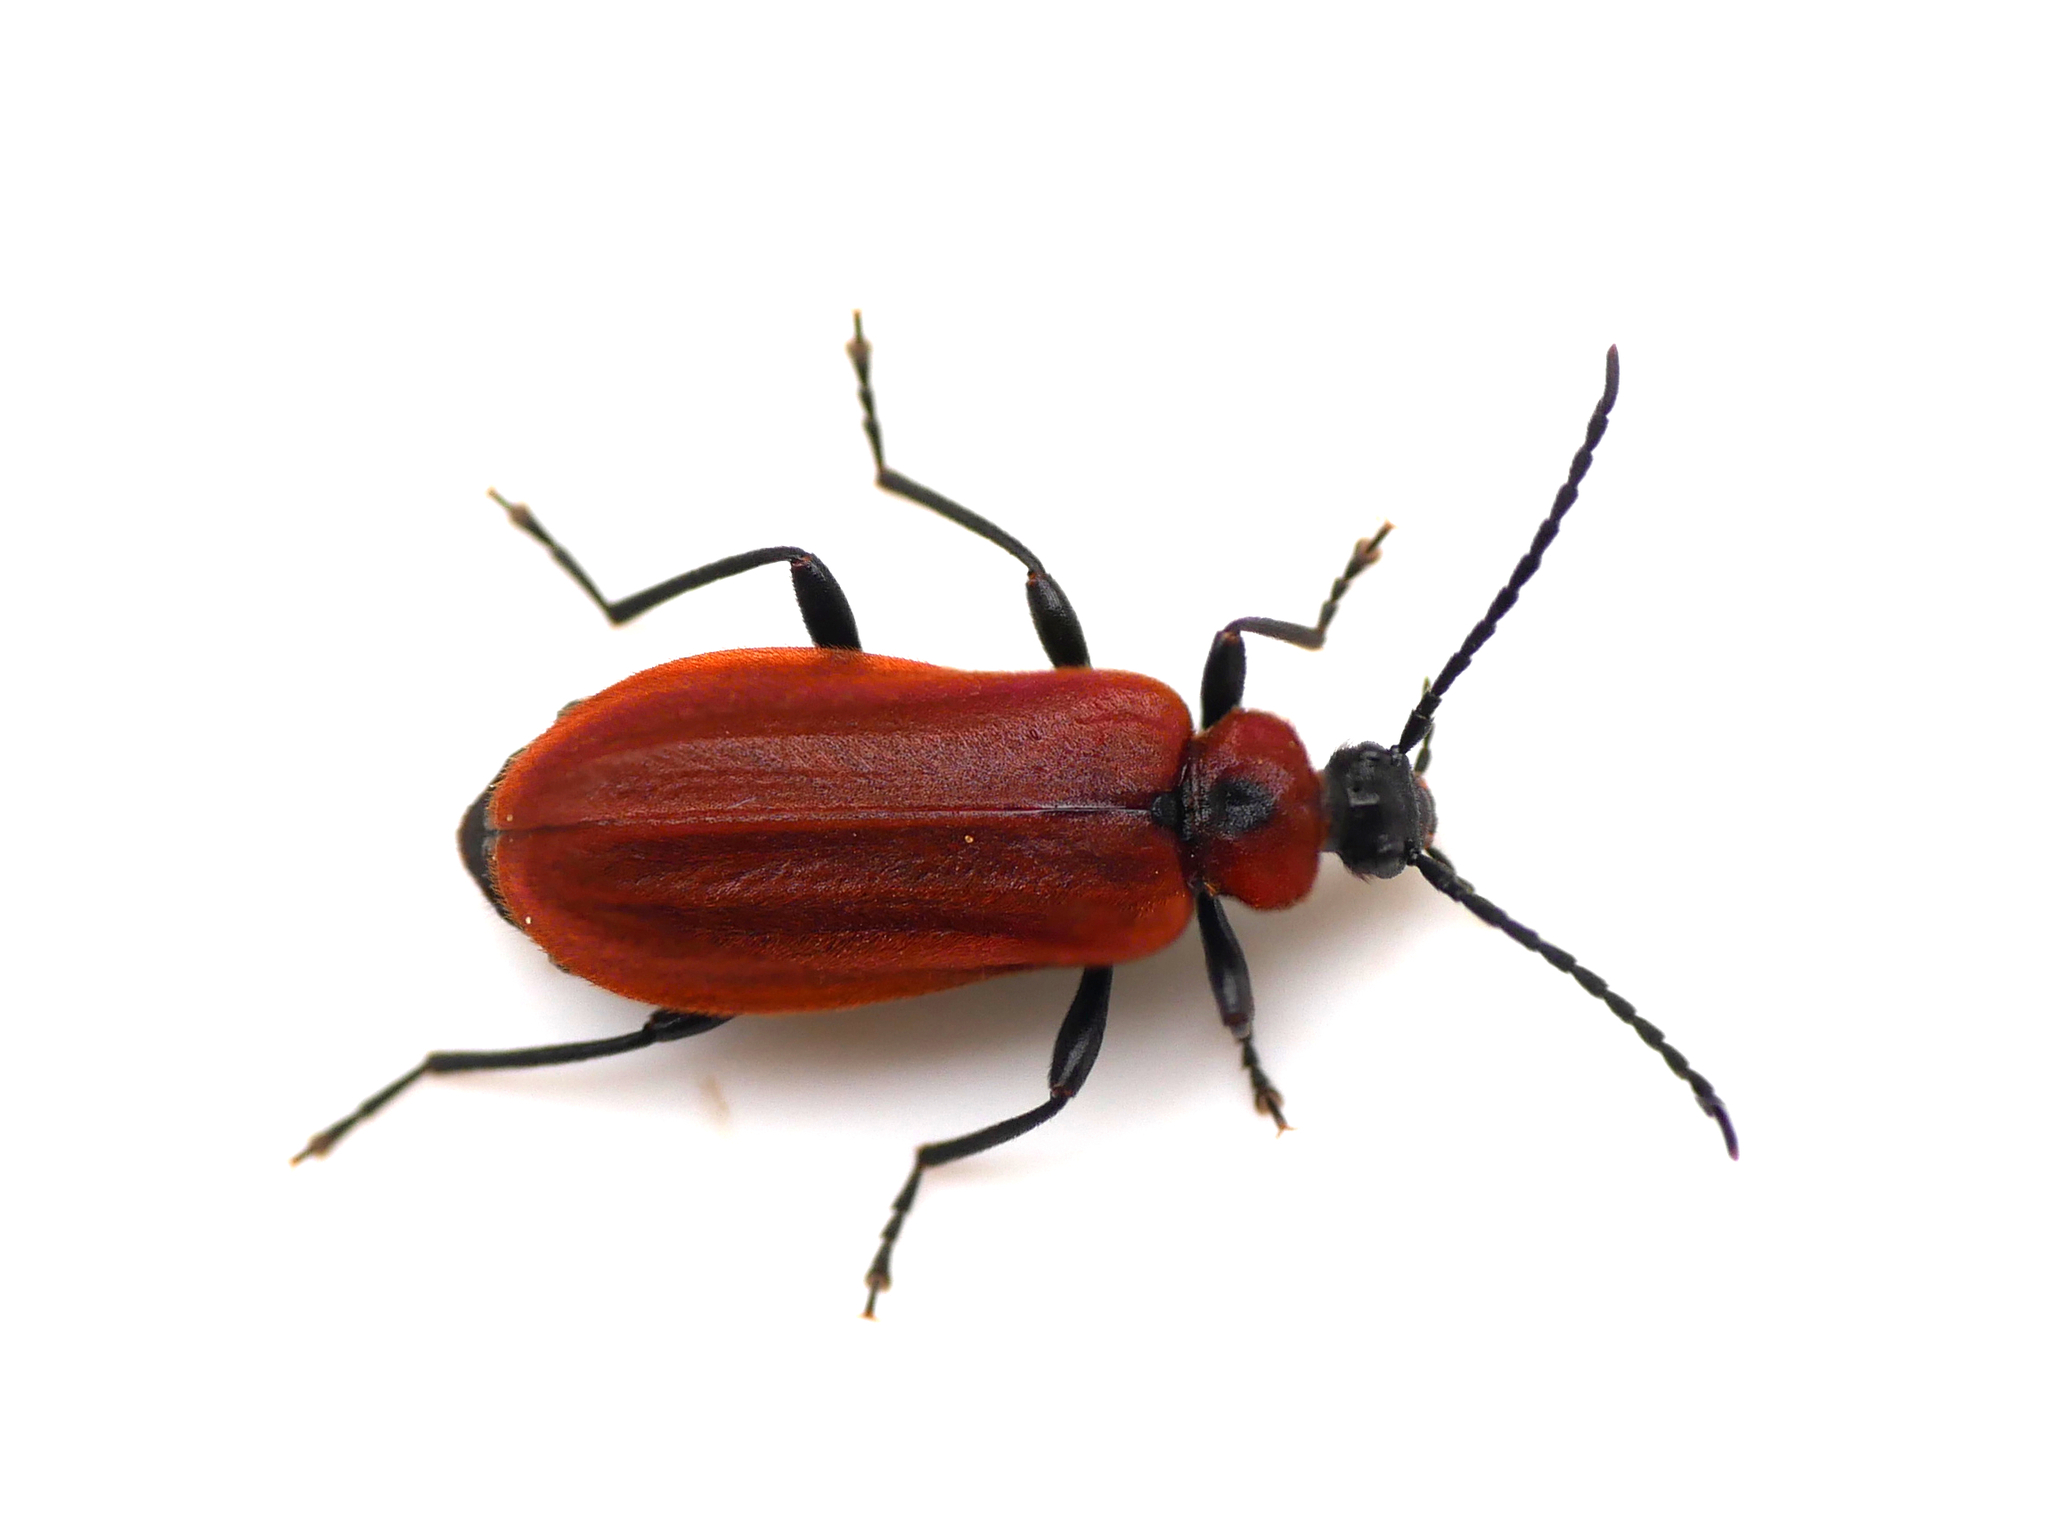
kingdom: Animalia
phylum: Arthropoda
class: Insecta
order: Coleoptera
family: Pyrochroidae
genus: Schizotus
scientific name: Schizotus pectinicornis
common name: Scarce cardinal beetle
